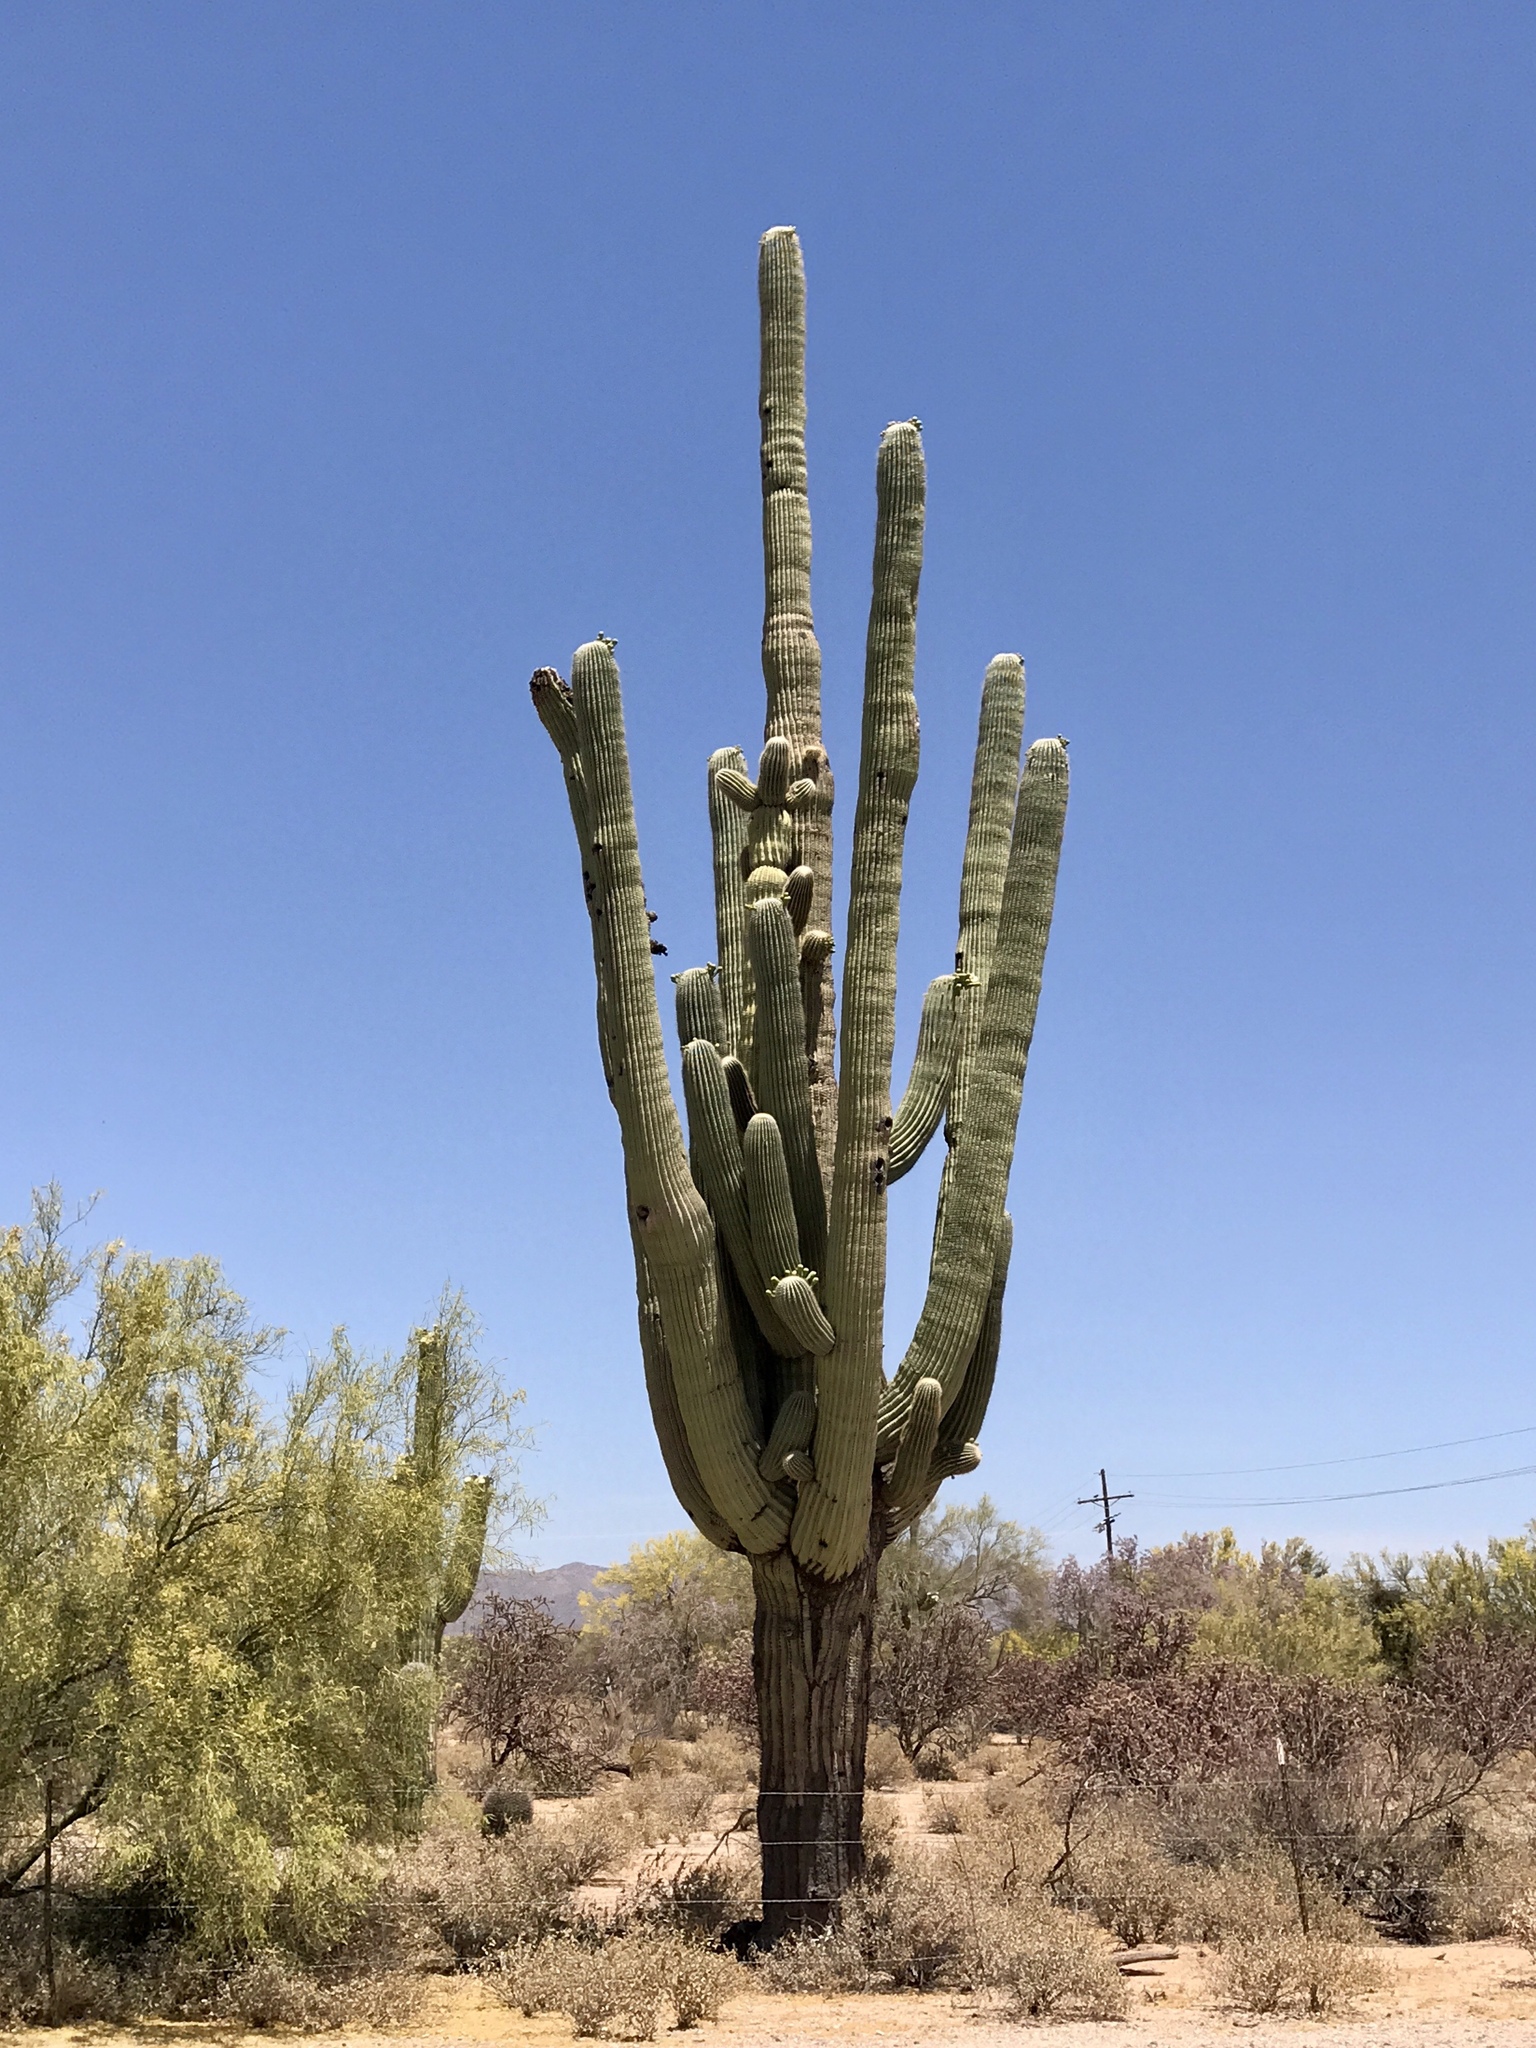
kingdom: Plantae
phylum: Tracheophyta
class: Magnoliopsida
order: Caryophyllales
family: Cactaceae
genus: Carnegiea
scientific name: Carnegiea gigantea
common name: Saguaro
